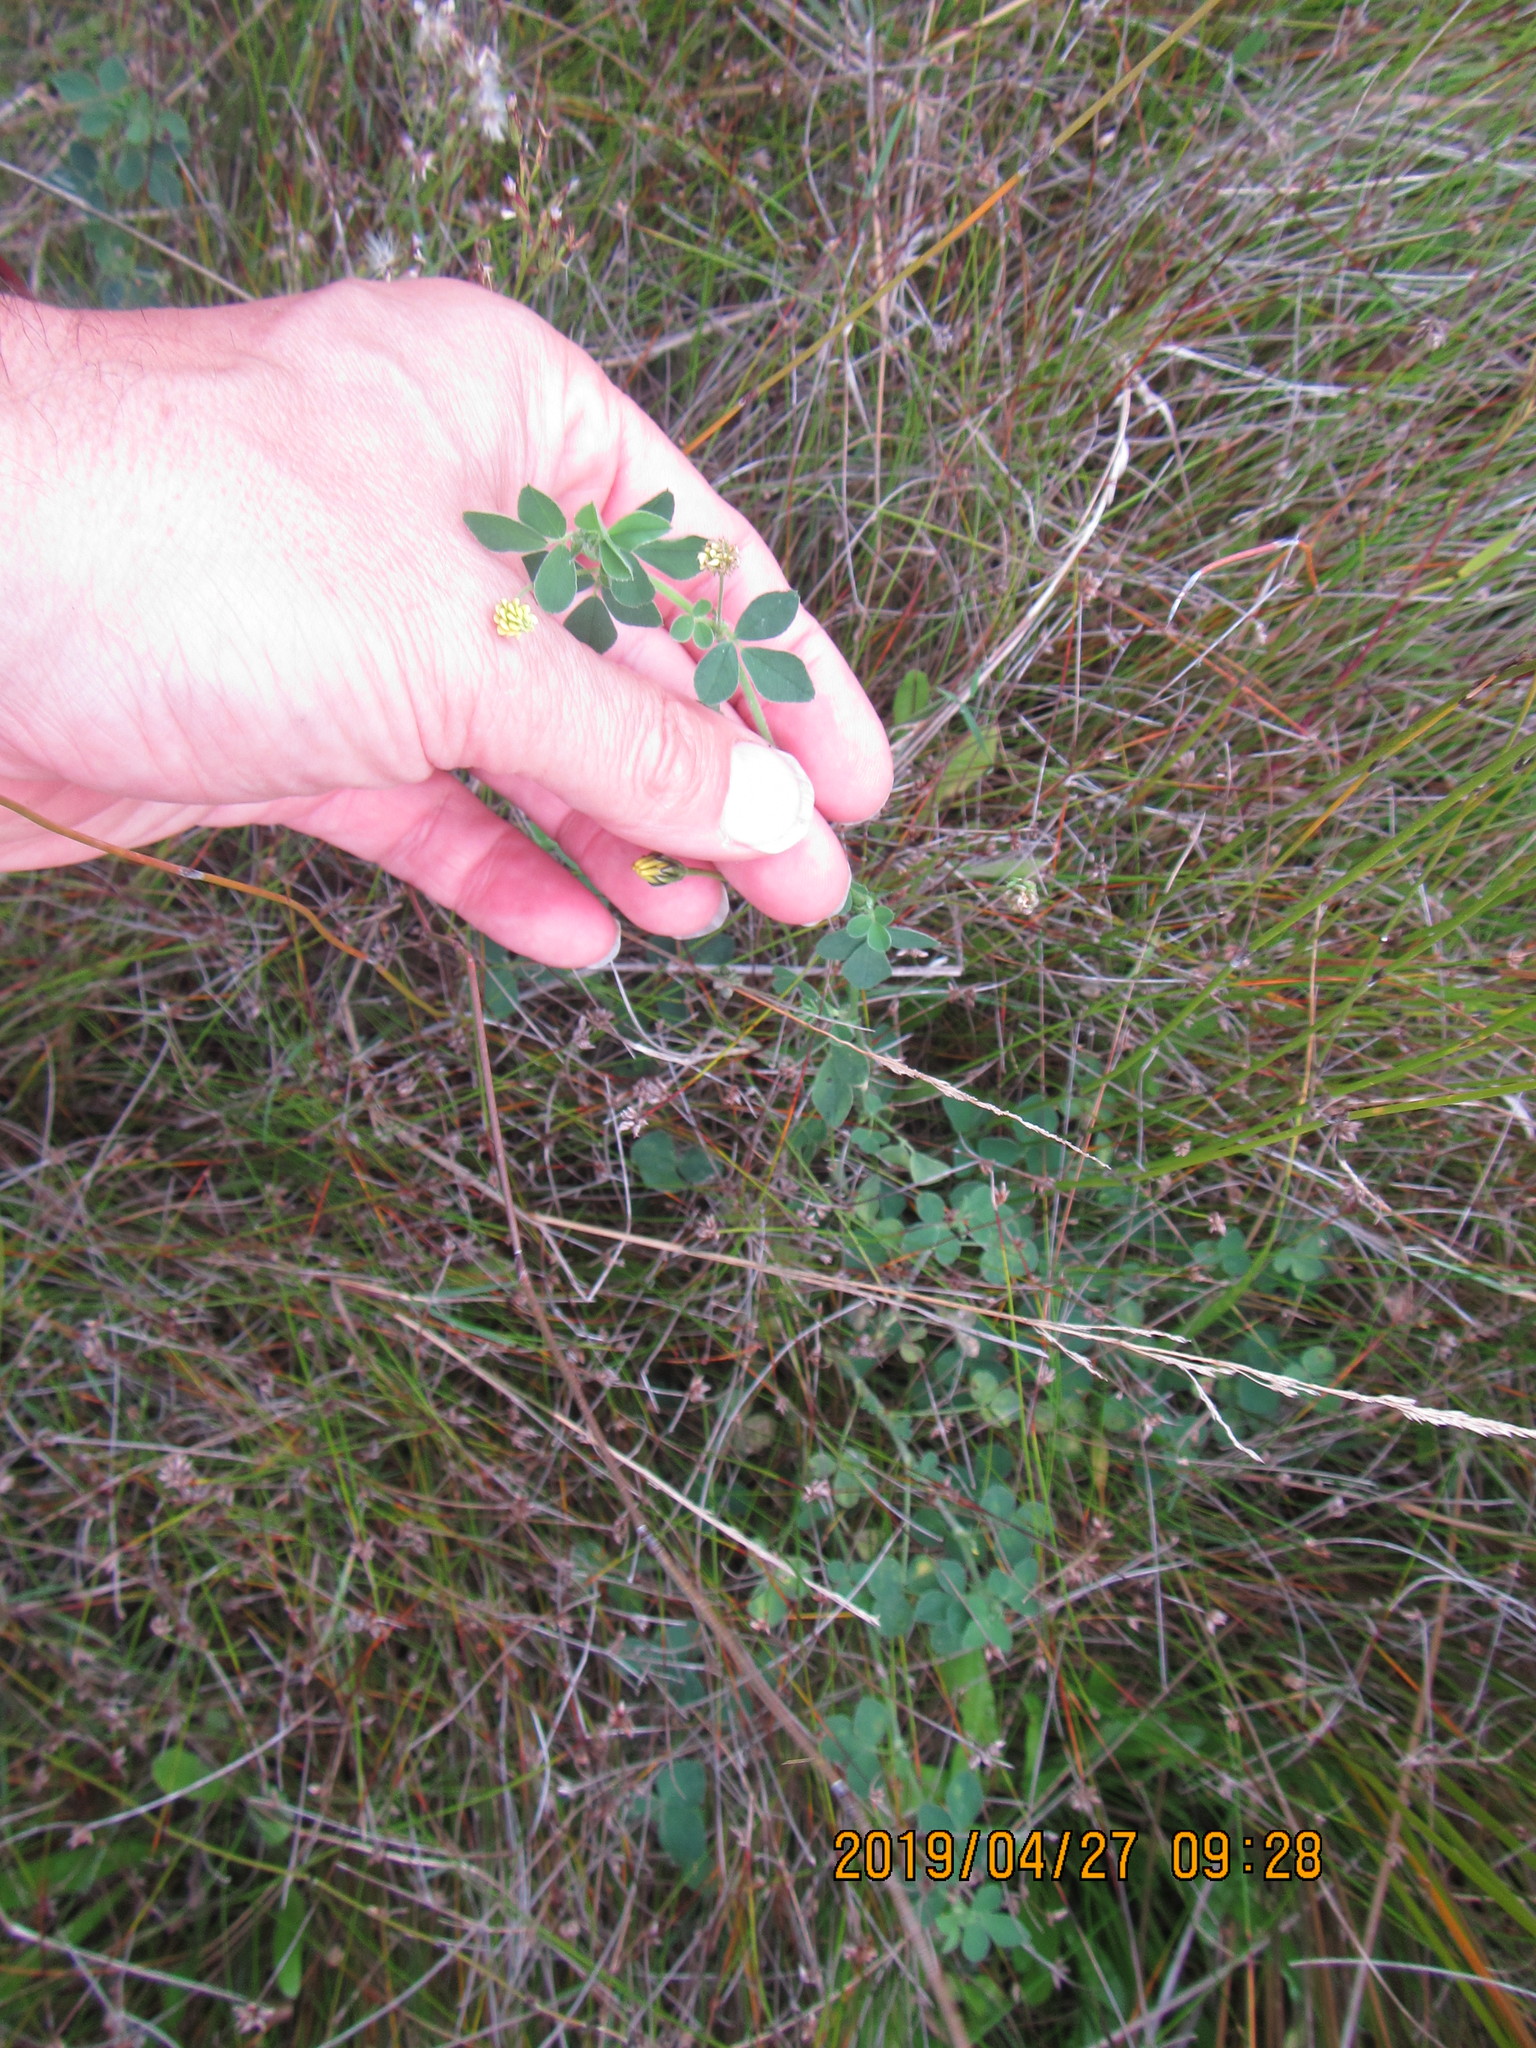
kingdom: Plantae
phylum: Tracheophyta
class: Magnoliopsida
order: Fabales
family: Fabaceae
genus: Melilotus
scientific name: Melilotus indicus
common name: Small melilot
